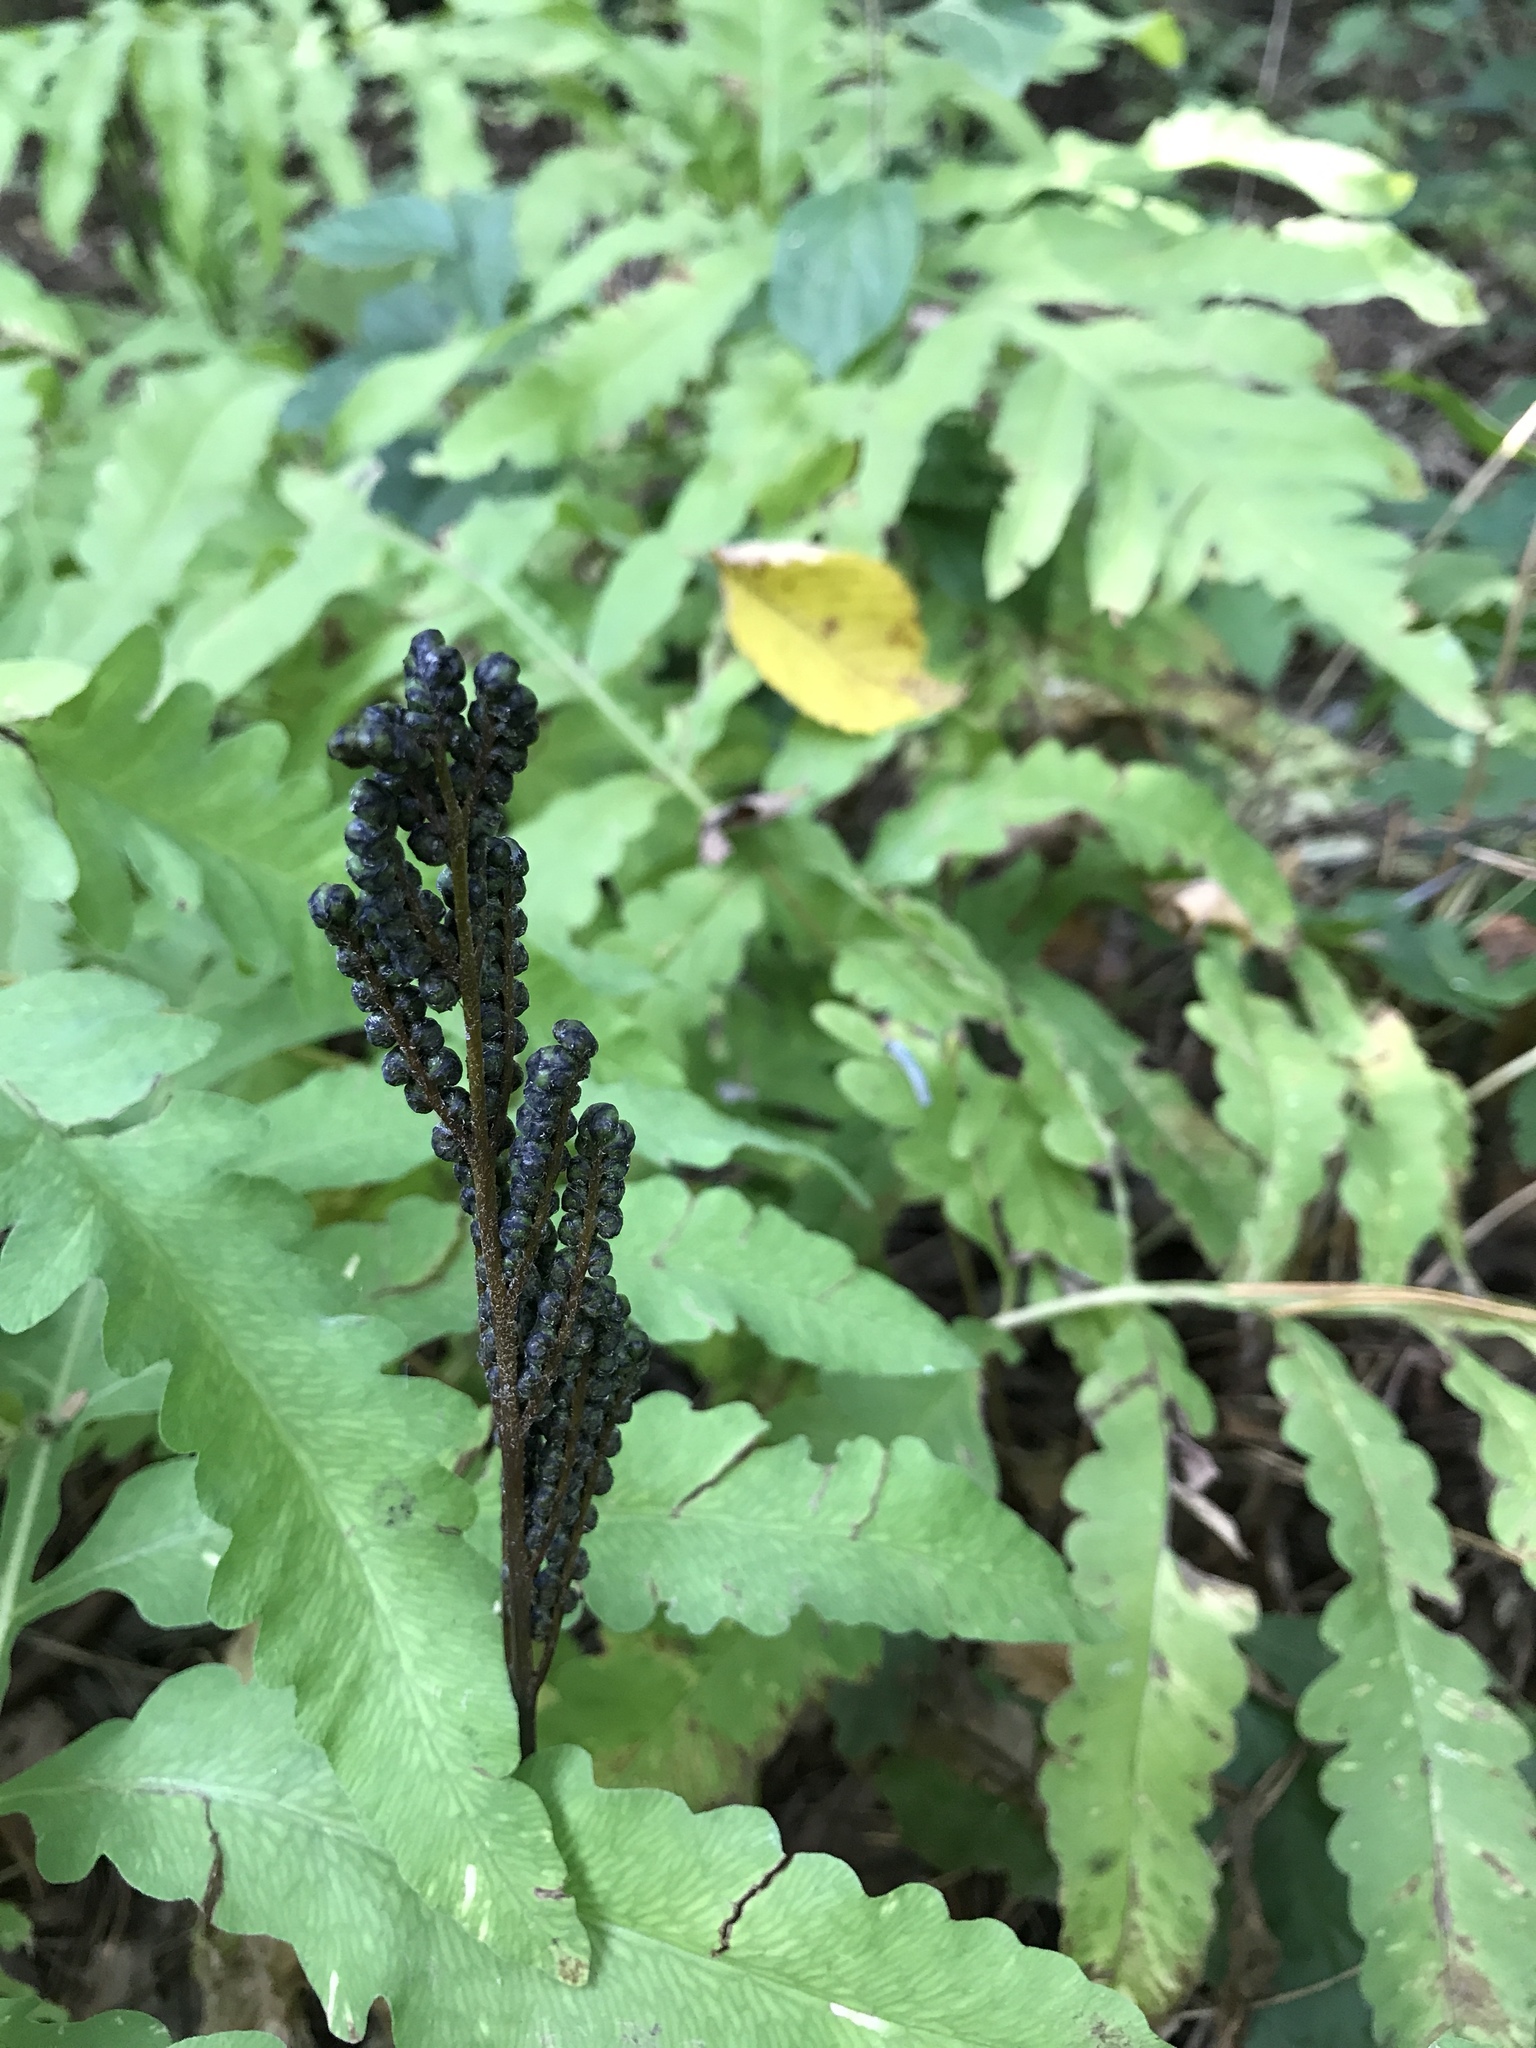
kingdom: Plantae
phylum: Tracheophyta
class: Polypodiopsida
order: Polypodiales
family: Onocleaceae
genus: Onoclea
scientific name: Onoclea sensibilis
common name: Sensitive fern
